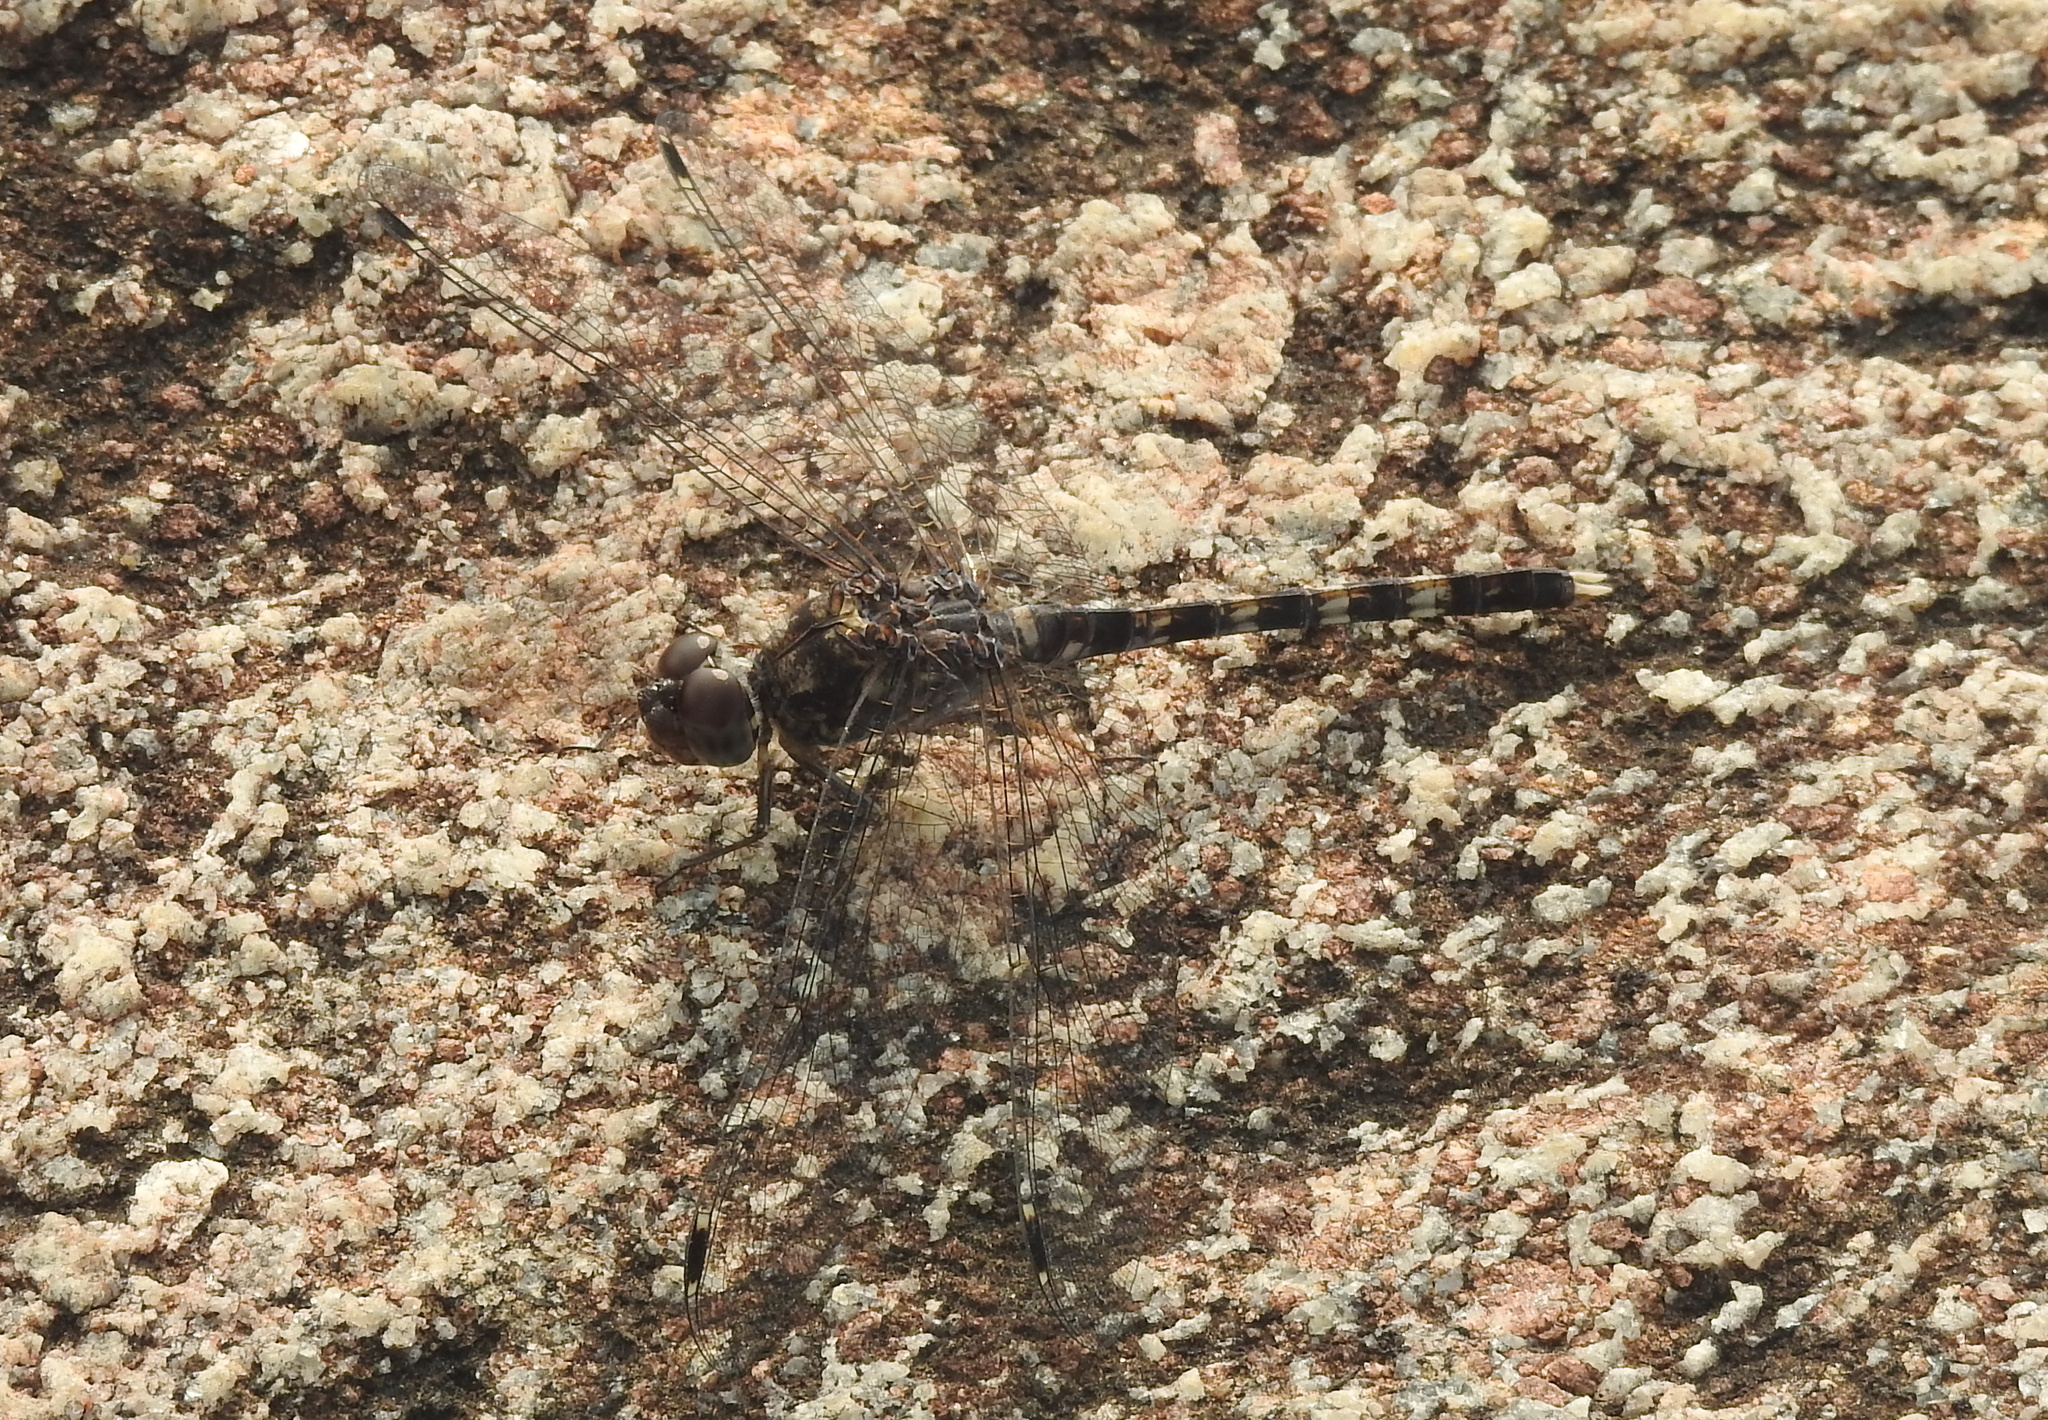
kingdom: Animalia
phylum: Arthropoda
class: Insecta
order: Odonata
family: Libellulidae
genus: Bradinopyga
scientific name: Bradinopyga geminata
